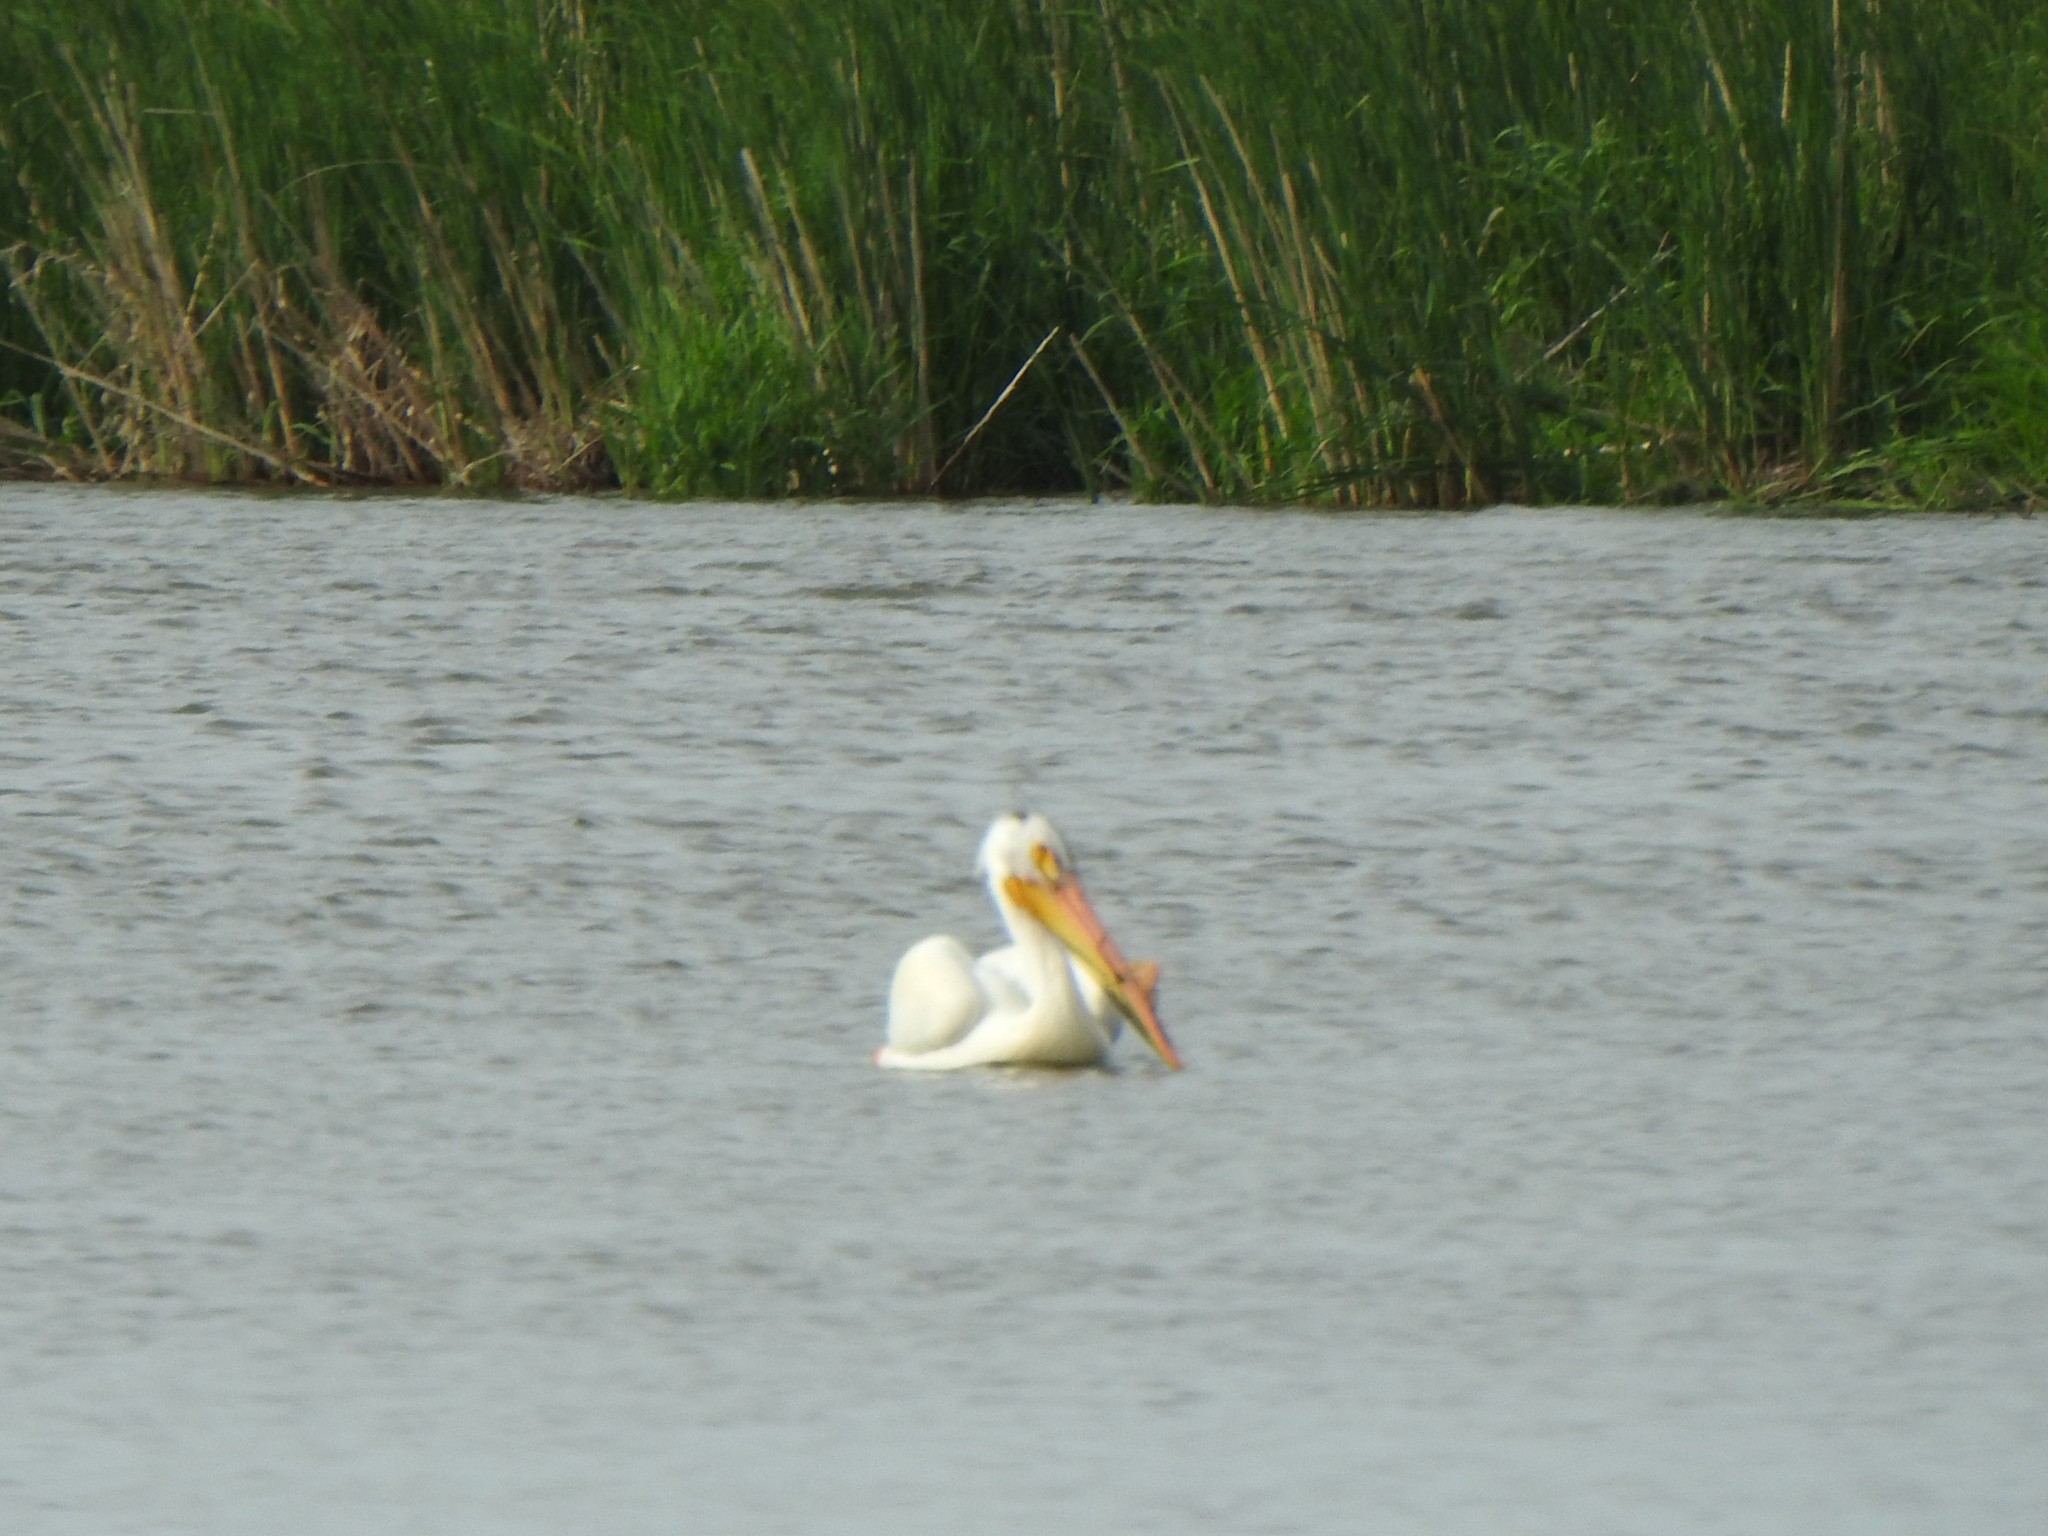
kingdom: Animalia
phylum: Chordata
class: Aves
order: Pelecaniformes
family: Pelecanidae
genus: Pelecanus
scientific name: Pelecanus erythrorhynchos
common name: American white pelican
